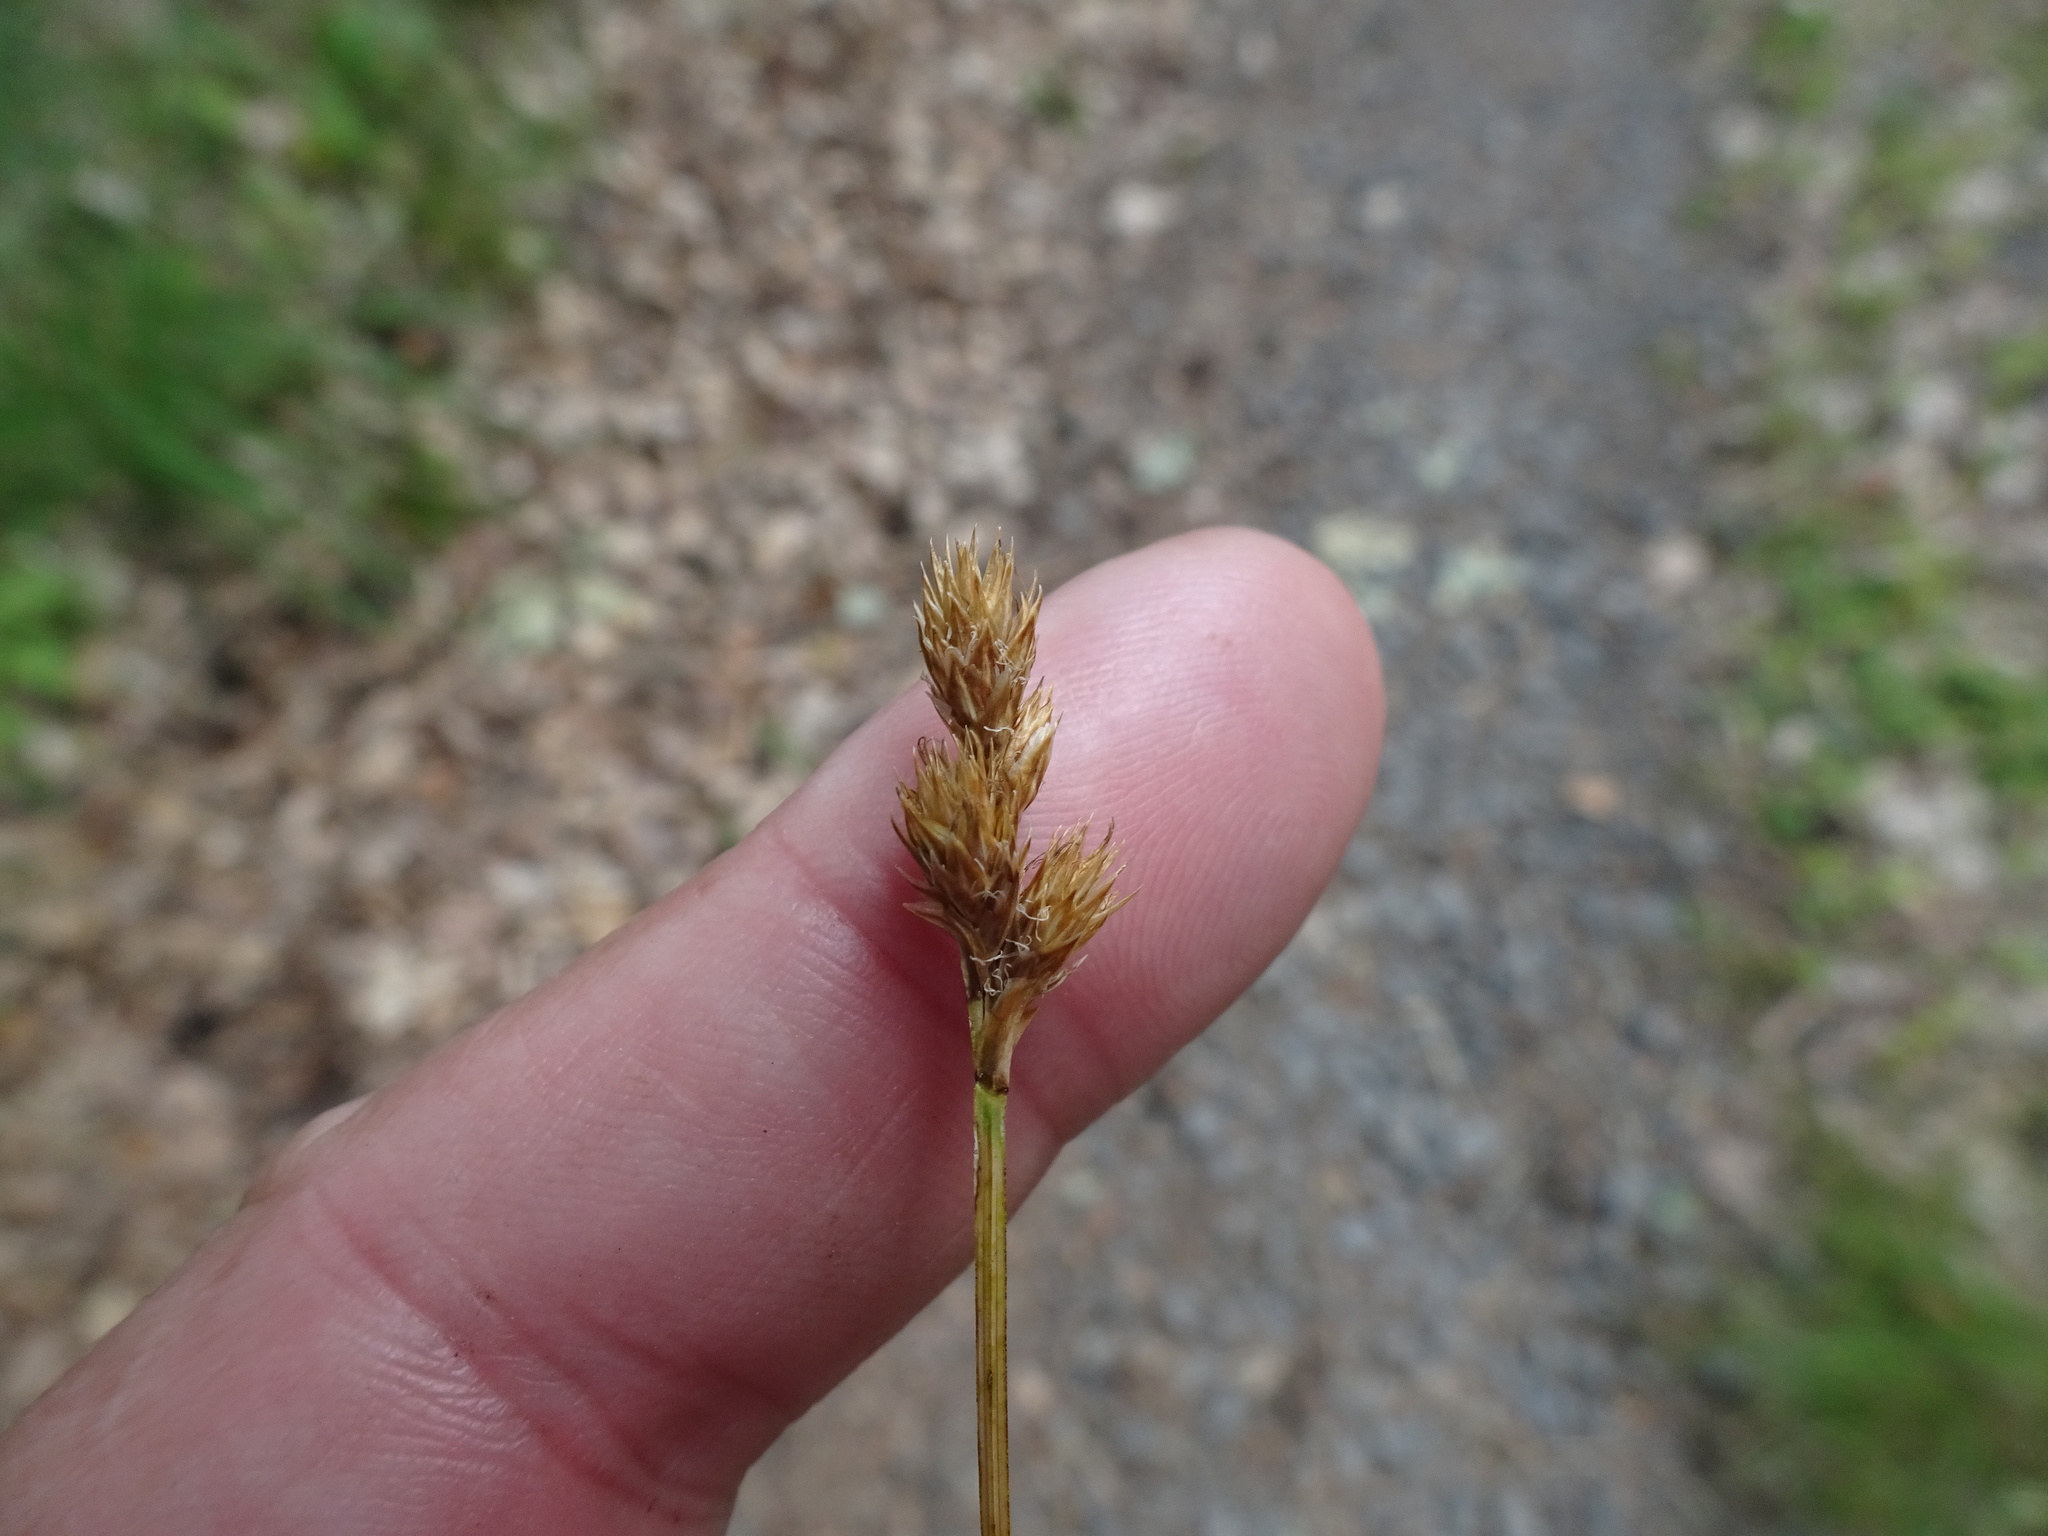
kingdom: Plantae
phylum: Tracheophyta
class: Liliopsida
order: Poales
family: Cyperaceae
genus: Carex
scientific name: Carex leporina
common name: Oval sedge
